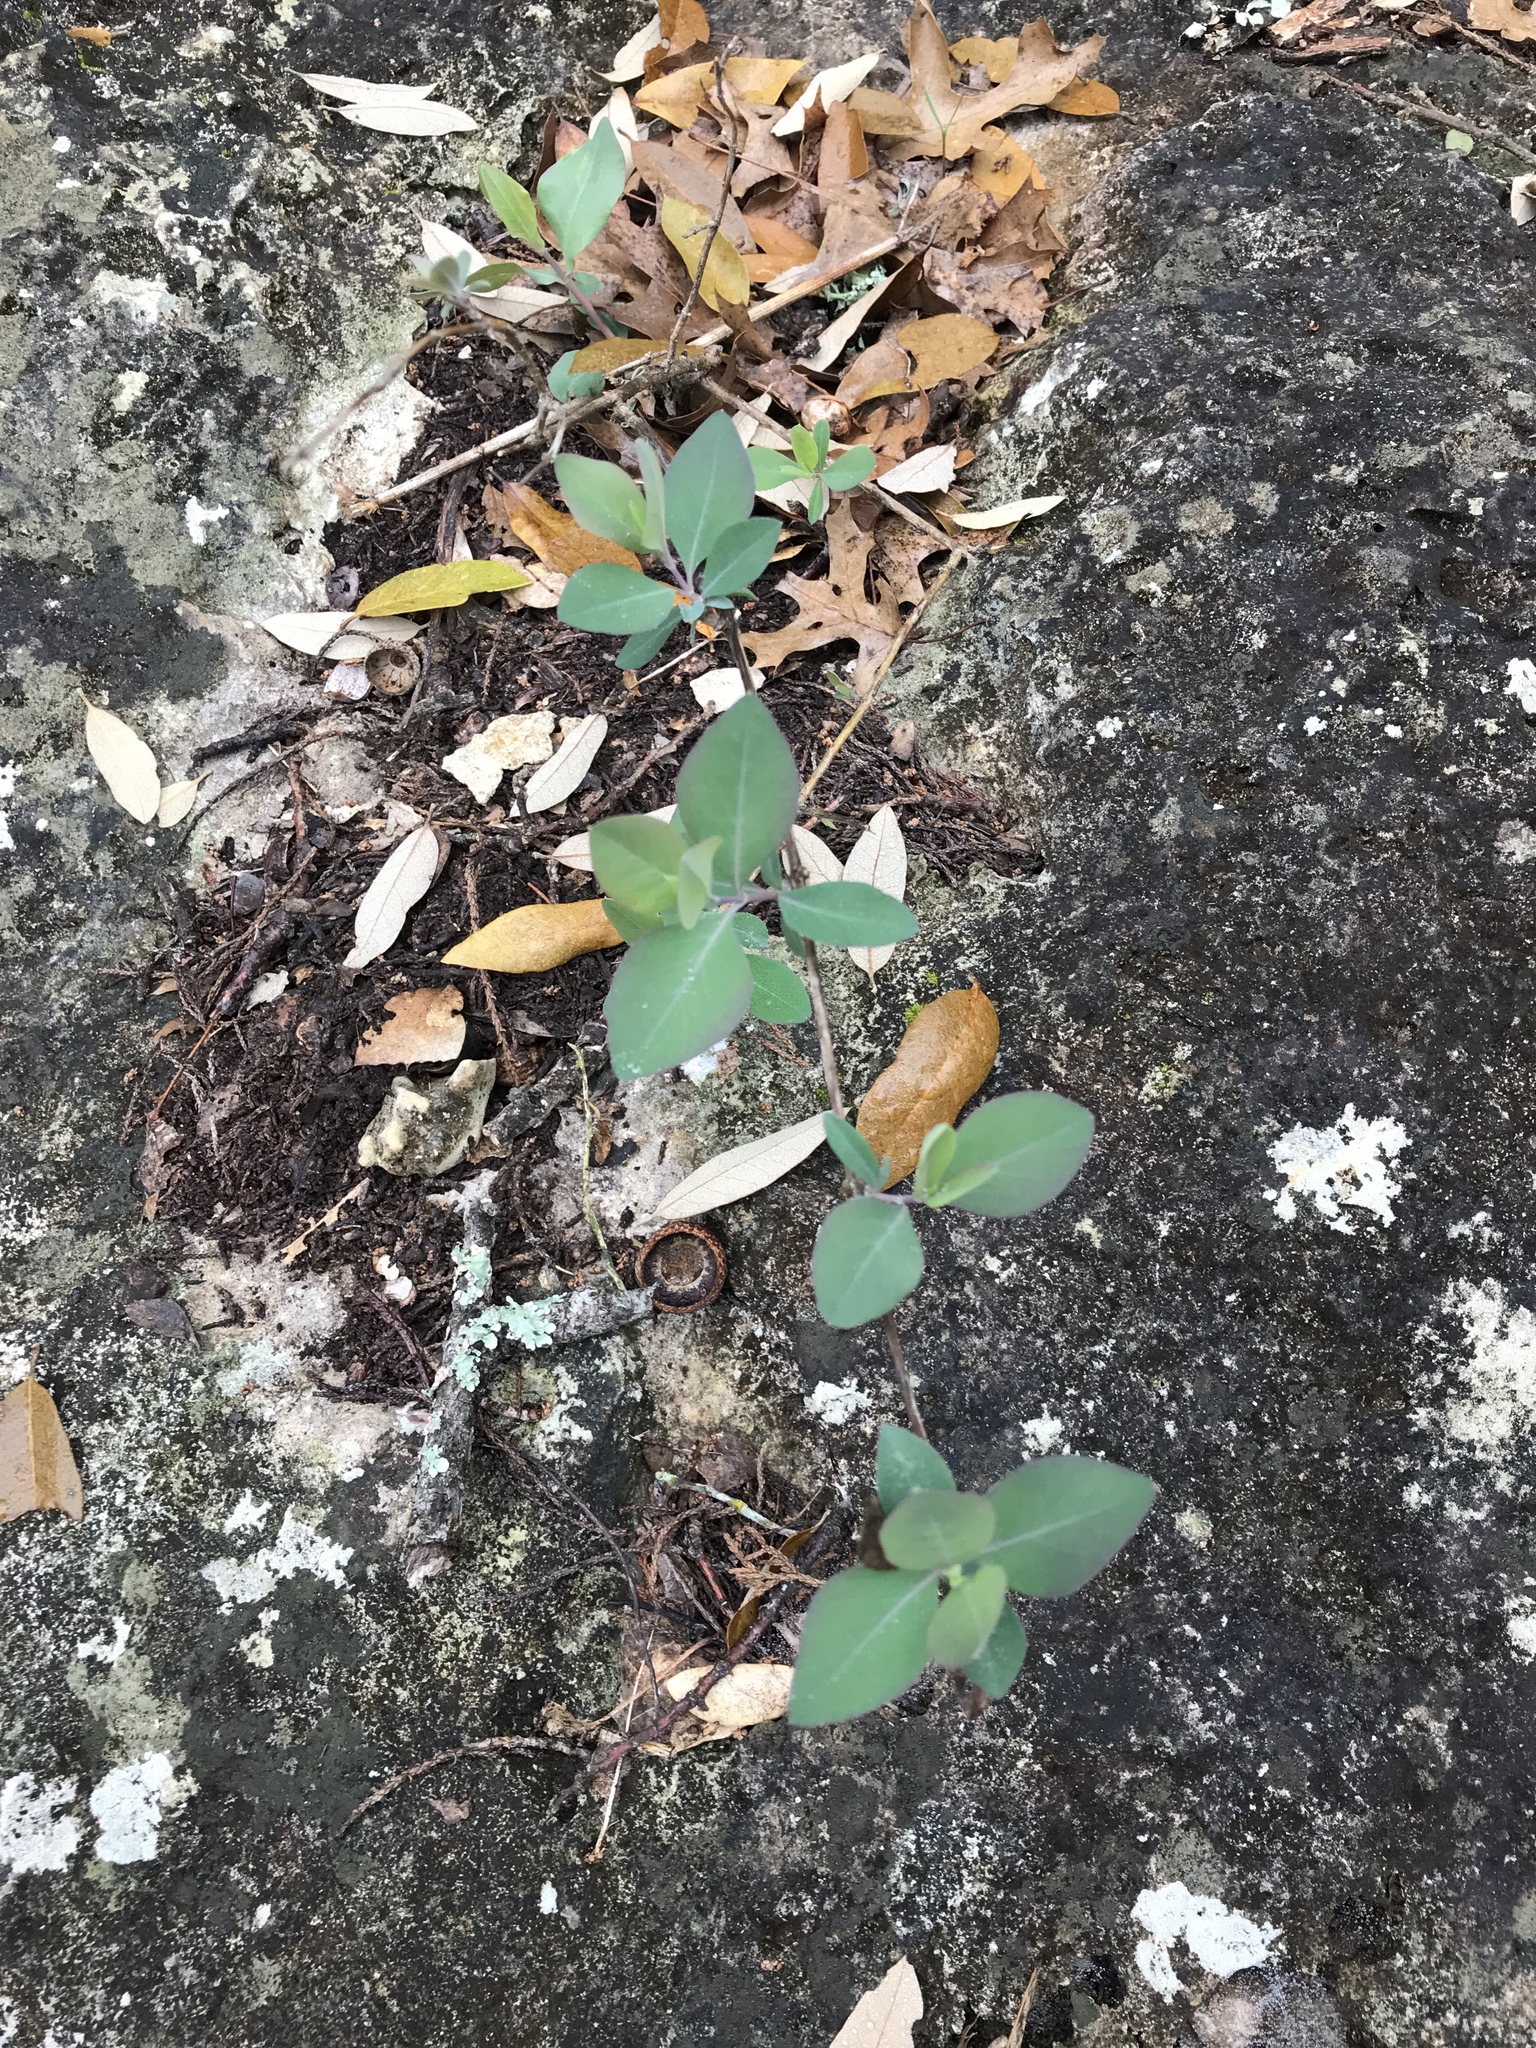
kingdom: Plantae
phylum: Tracheophyta
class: Magnoliopsida
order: Dipsacales
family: Caprifoliaceae
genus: Lonicera
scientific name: Lonicera albiflora
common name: White honeysuckle
